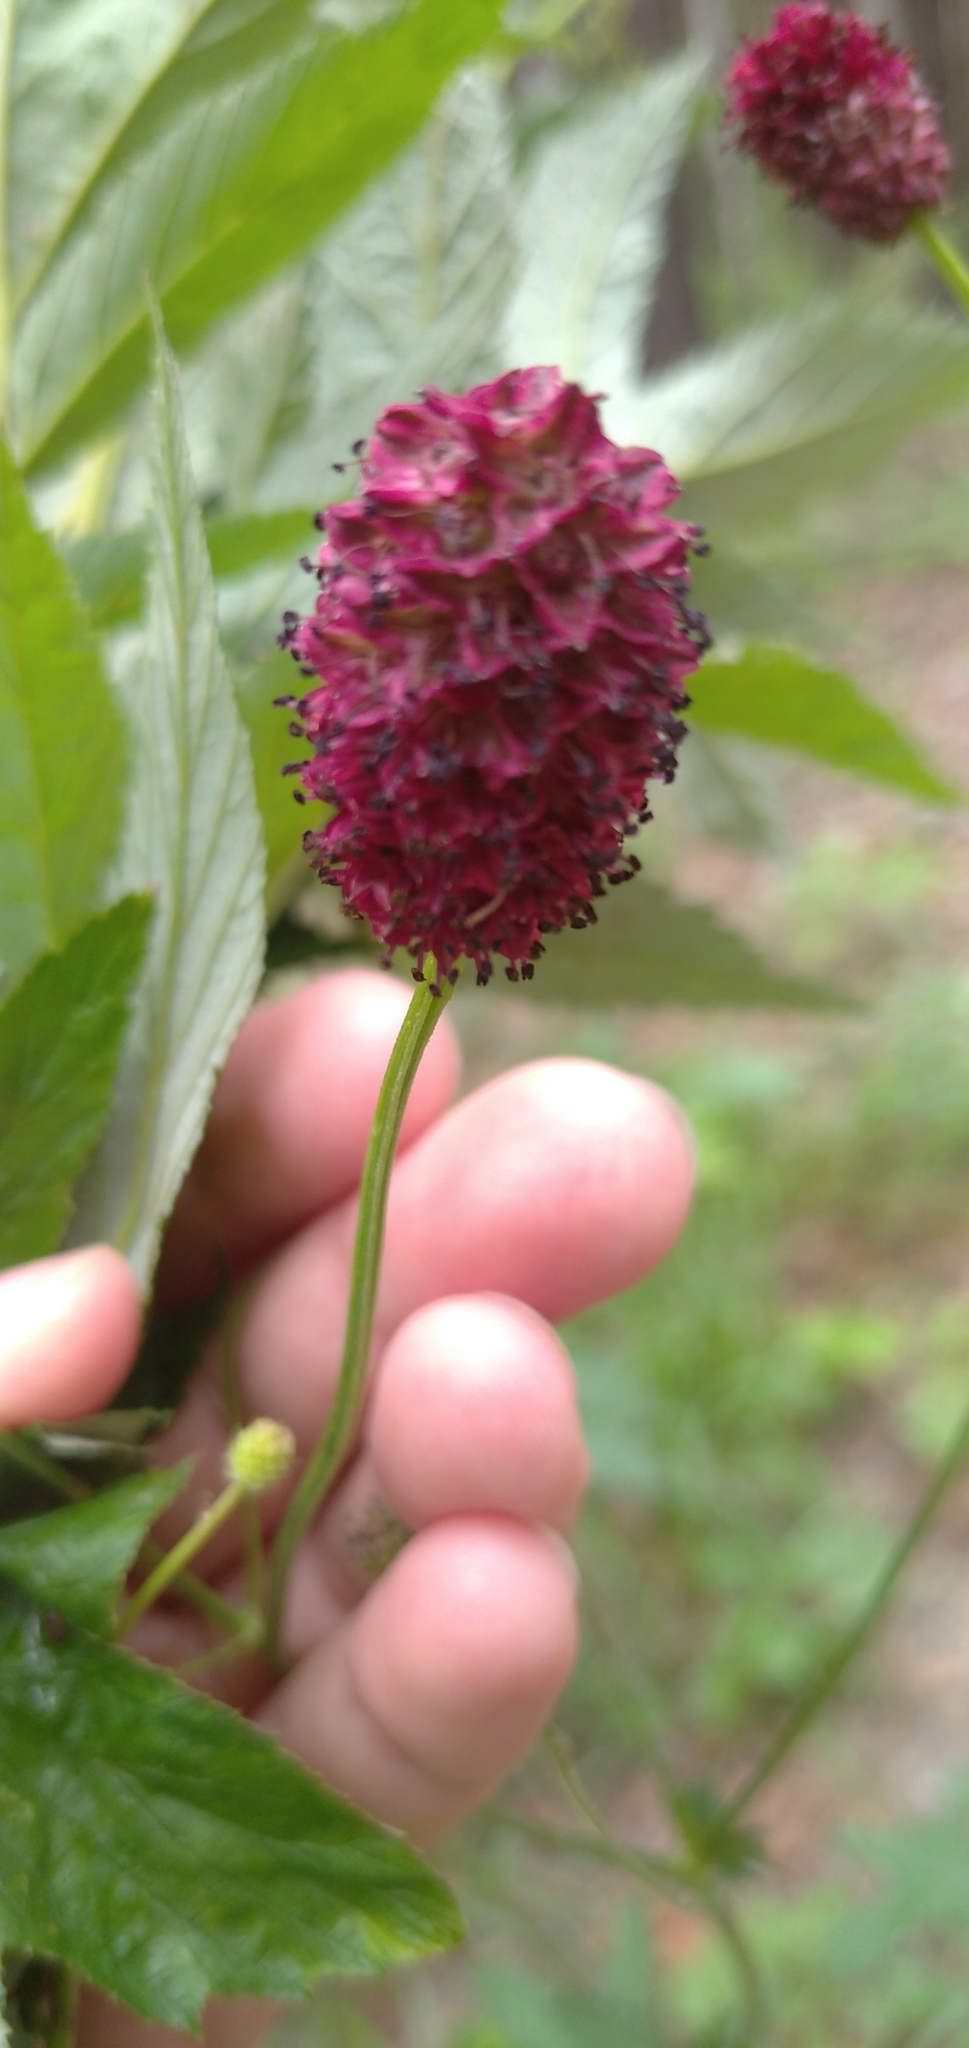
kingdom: Plantae
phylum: Tracheophyta
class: Magnoliopsida
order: Rosales
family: Rosaceae
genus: Sanguisorba
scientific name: Sanguisorba officinalis
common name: Great burnet
